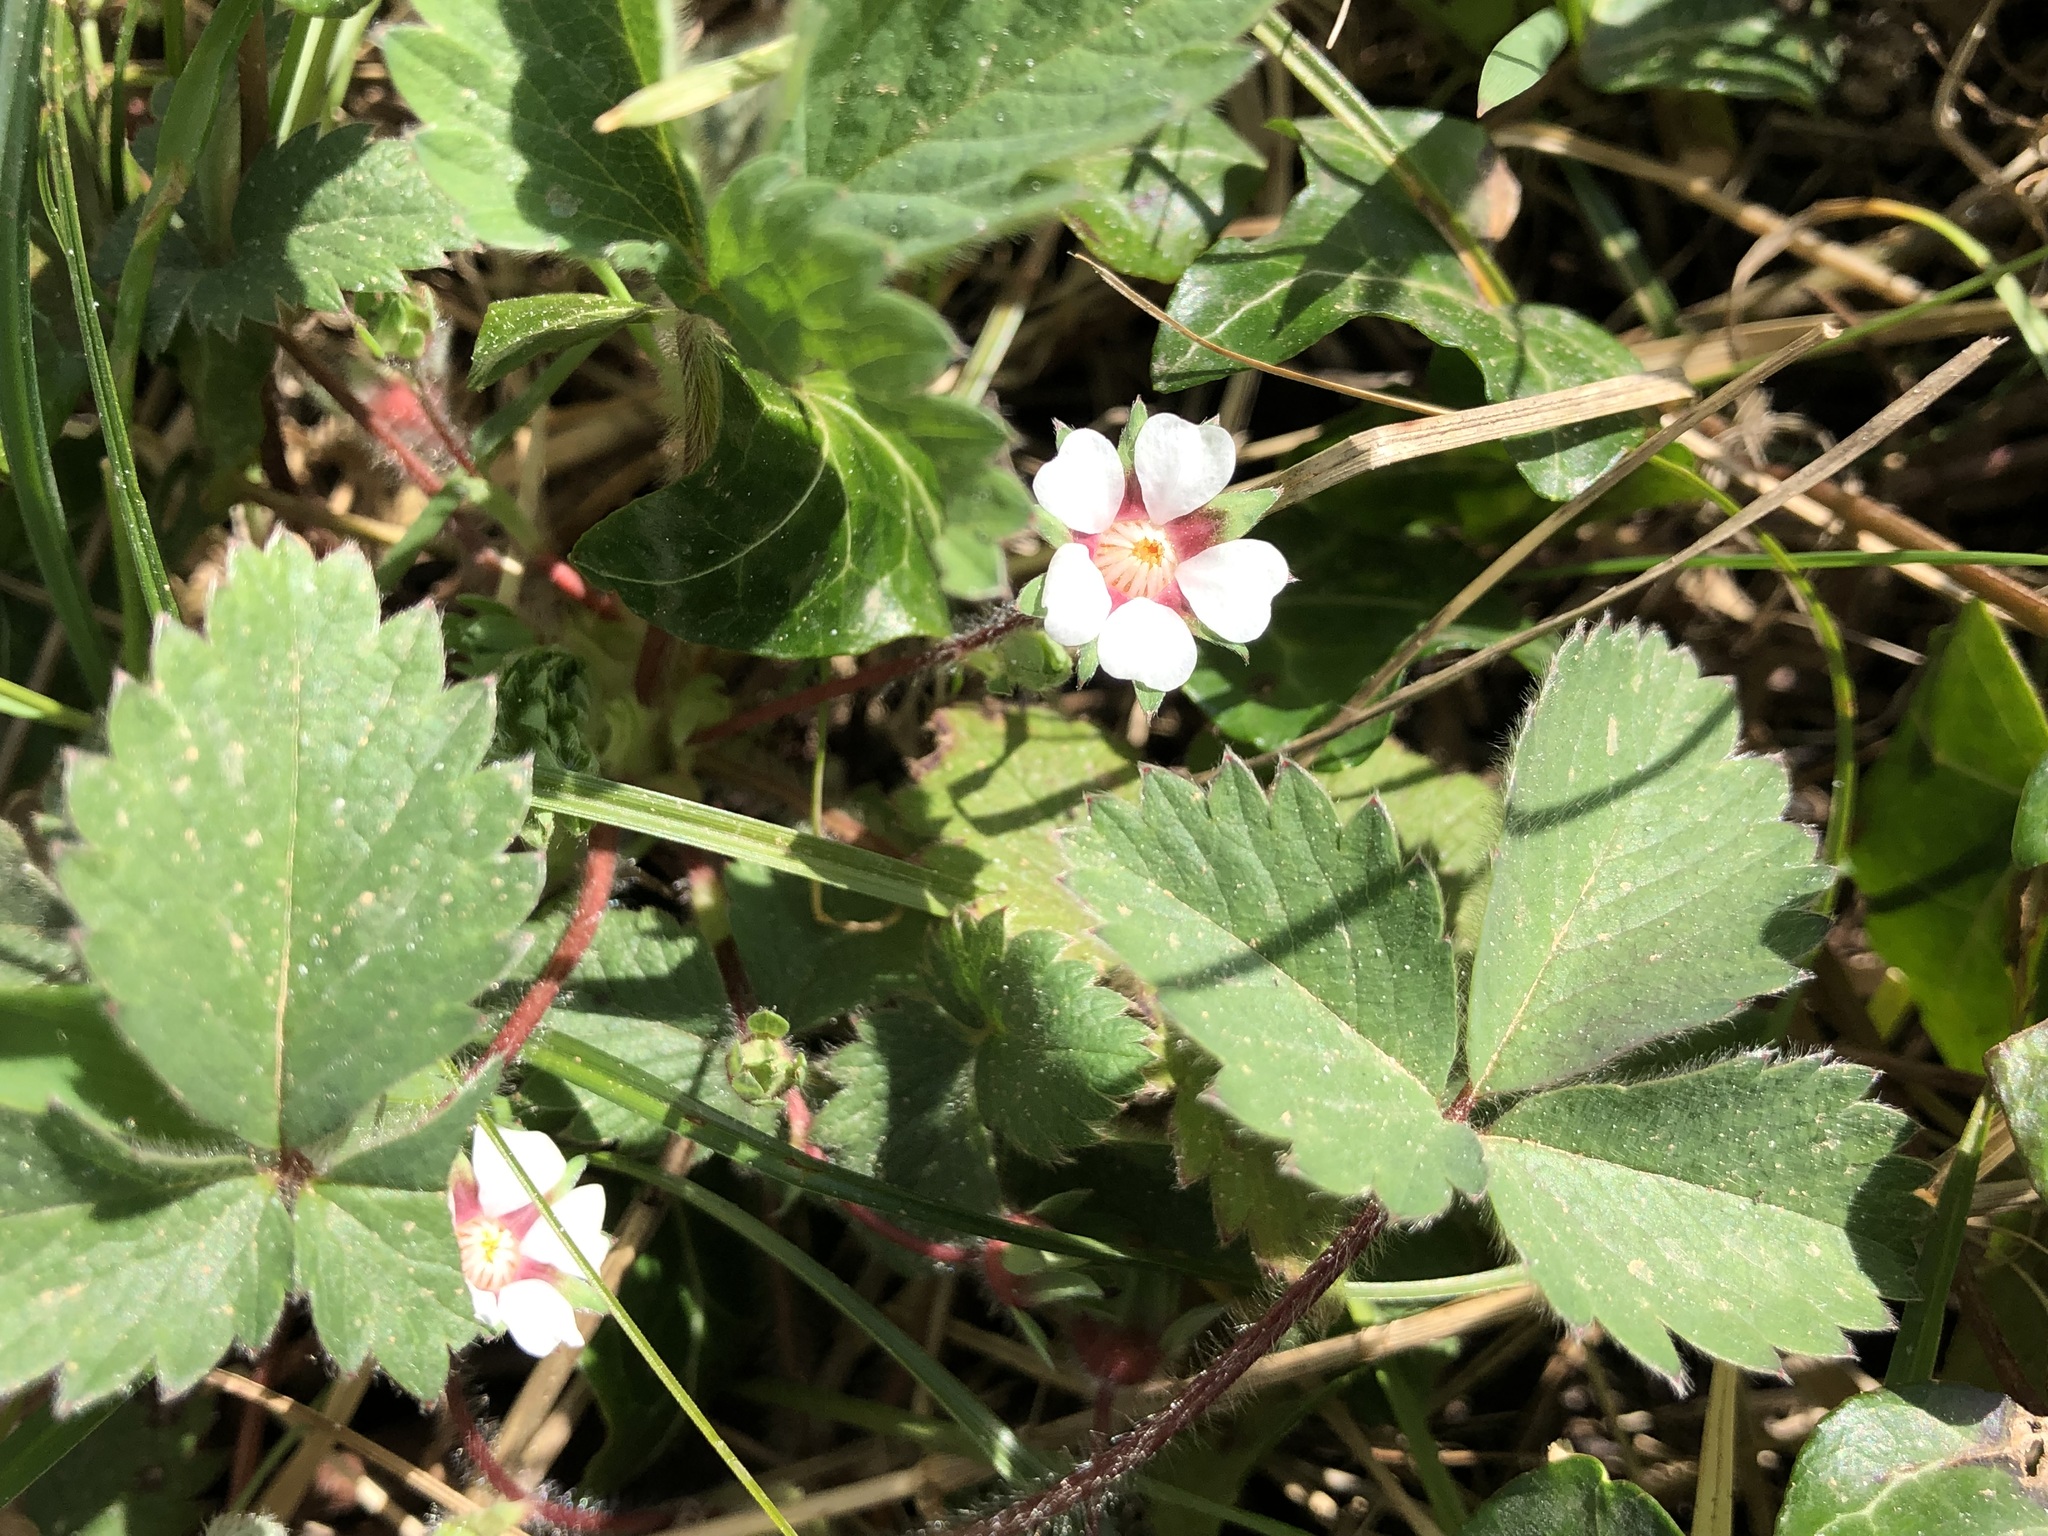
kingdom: Plantae
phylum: Tracheophyta
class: Magnoliopsida
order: Rosales
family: Rosaceae
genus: Potentilla
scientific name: Potentilla micrantha
